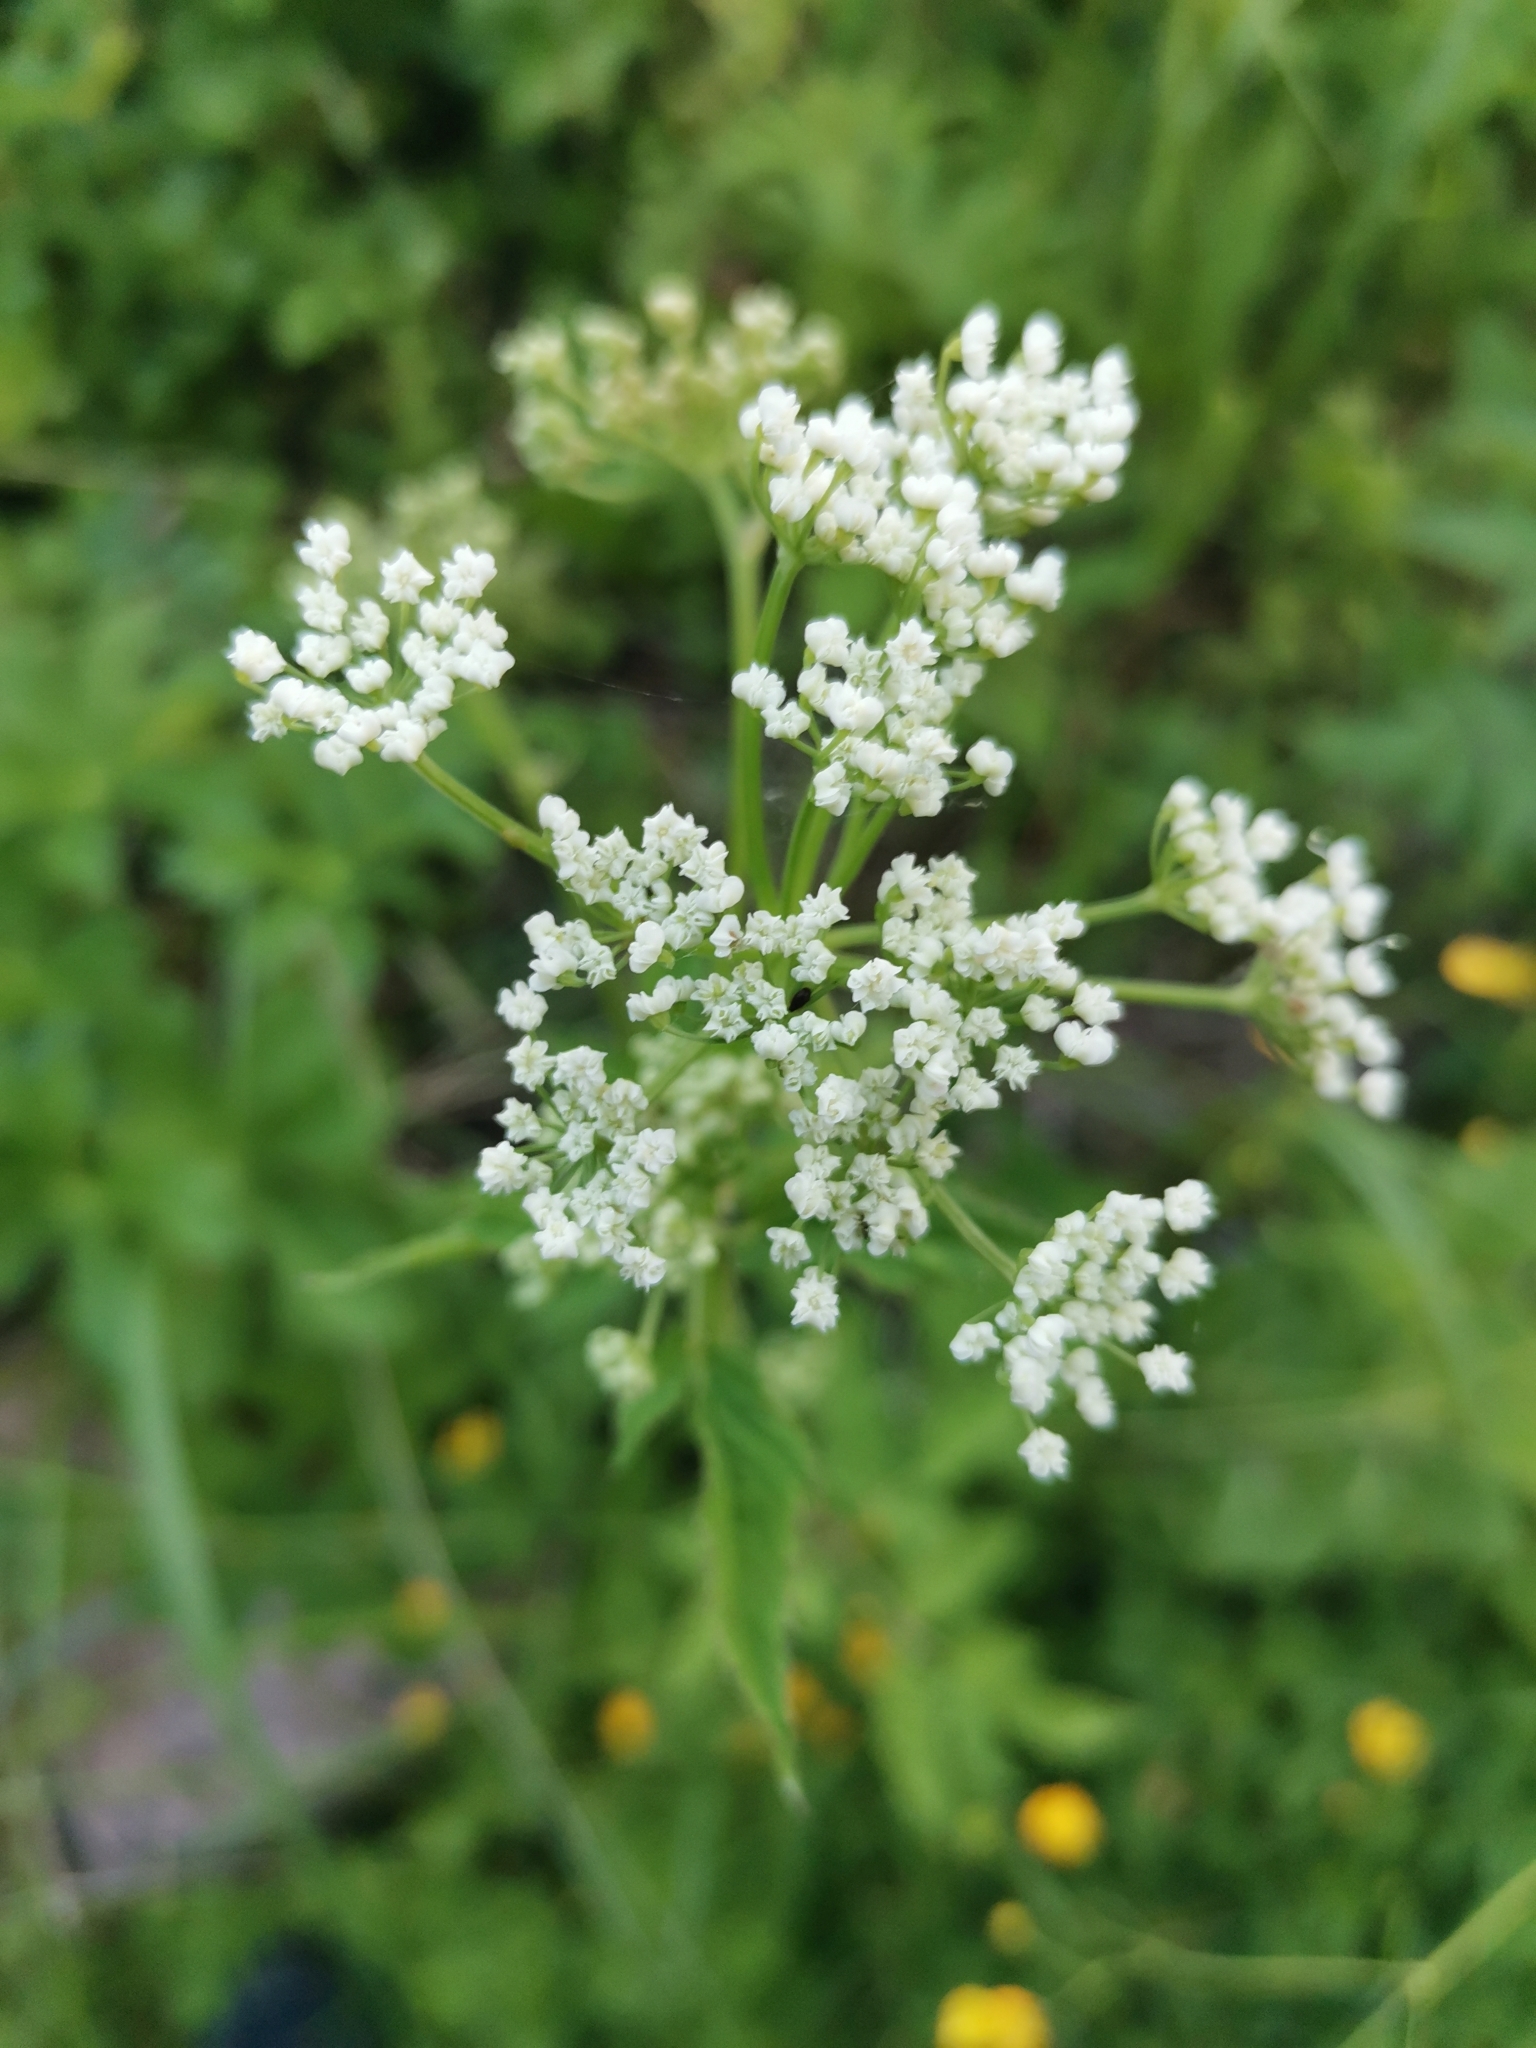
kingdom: Plantae
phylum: Tracheophyta
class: Magnoliopsida
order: Apiales
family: Apiaceae
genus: Aegopodium
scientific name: Aegopodium podagraria
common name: Ground-elder
